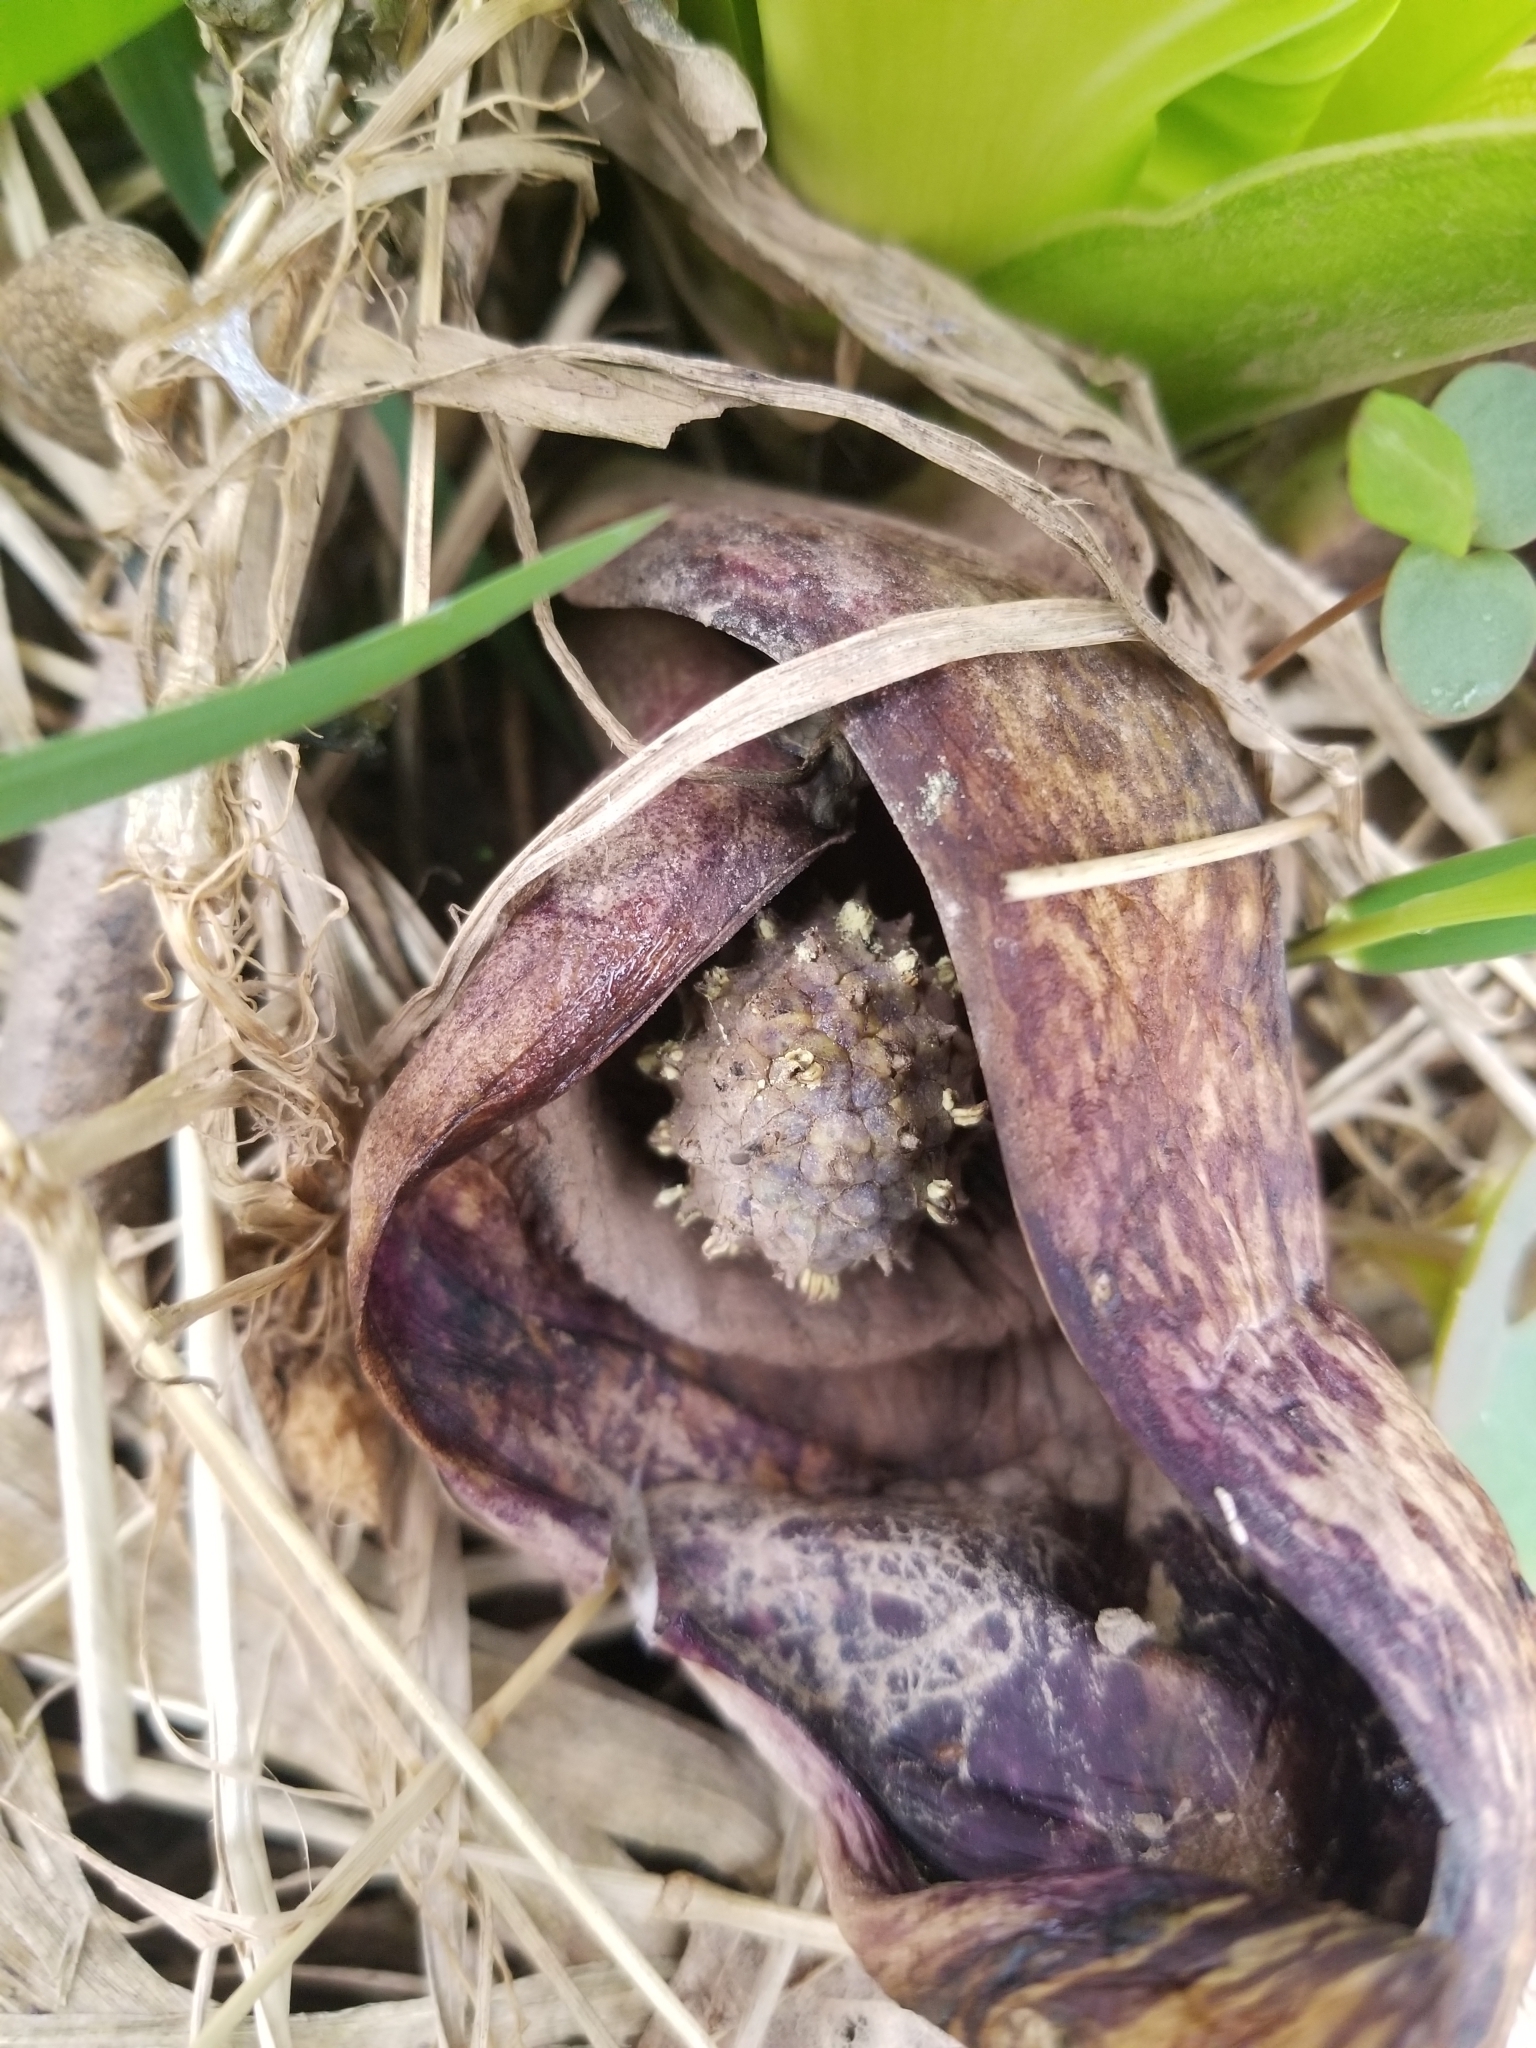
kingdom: Plantae
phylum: Tracheophyta
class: Liliopsida
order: Alismatales
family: Araceae
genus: Symplocarpus
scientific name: Symplocarpus foetidus
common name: Eastern skunk cabbage
